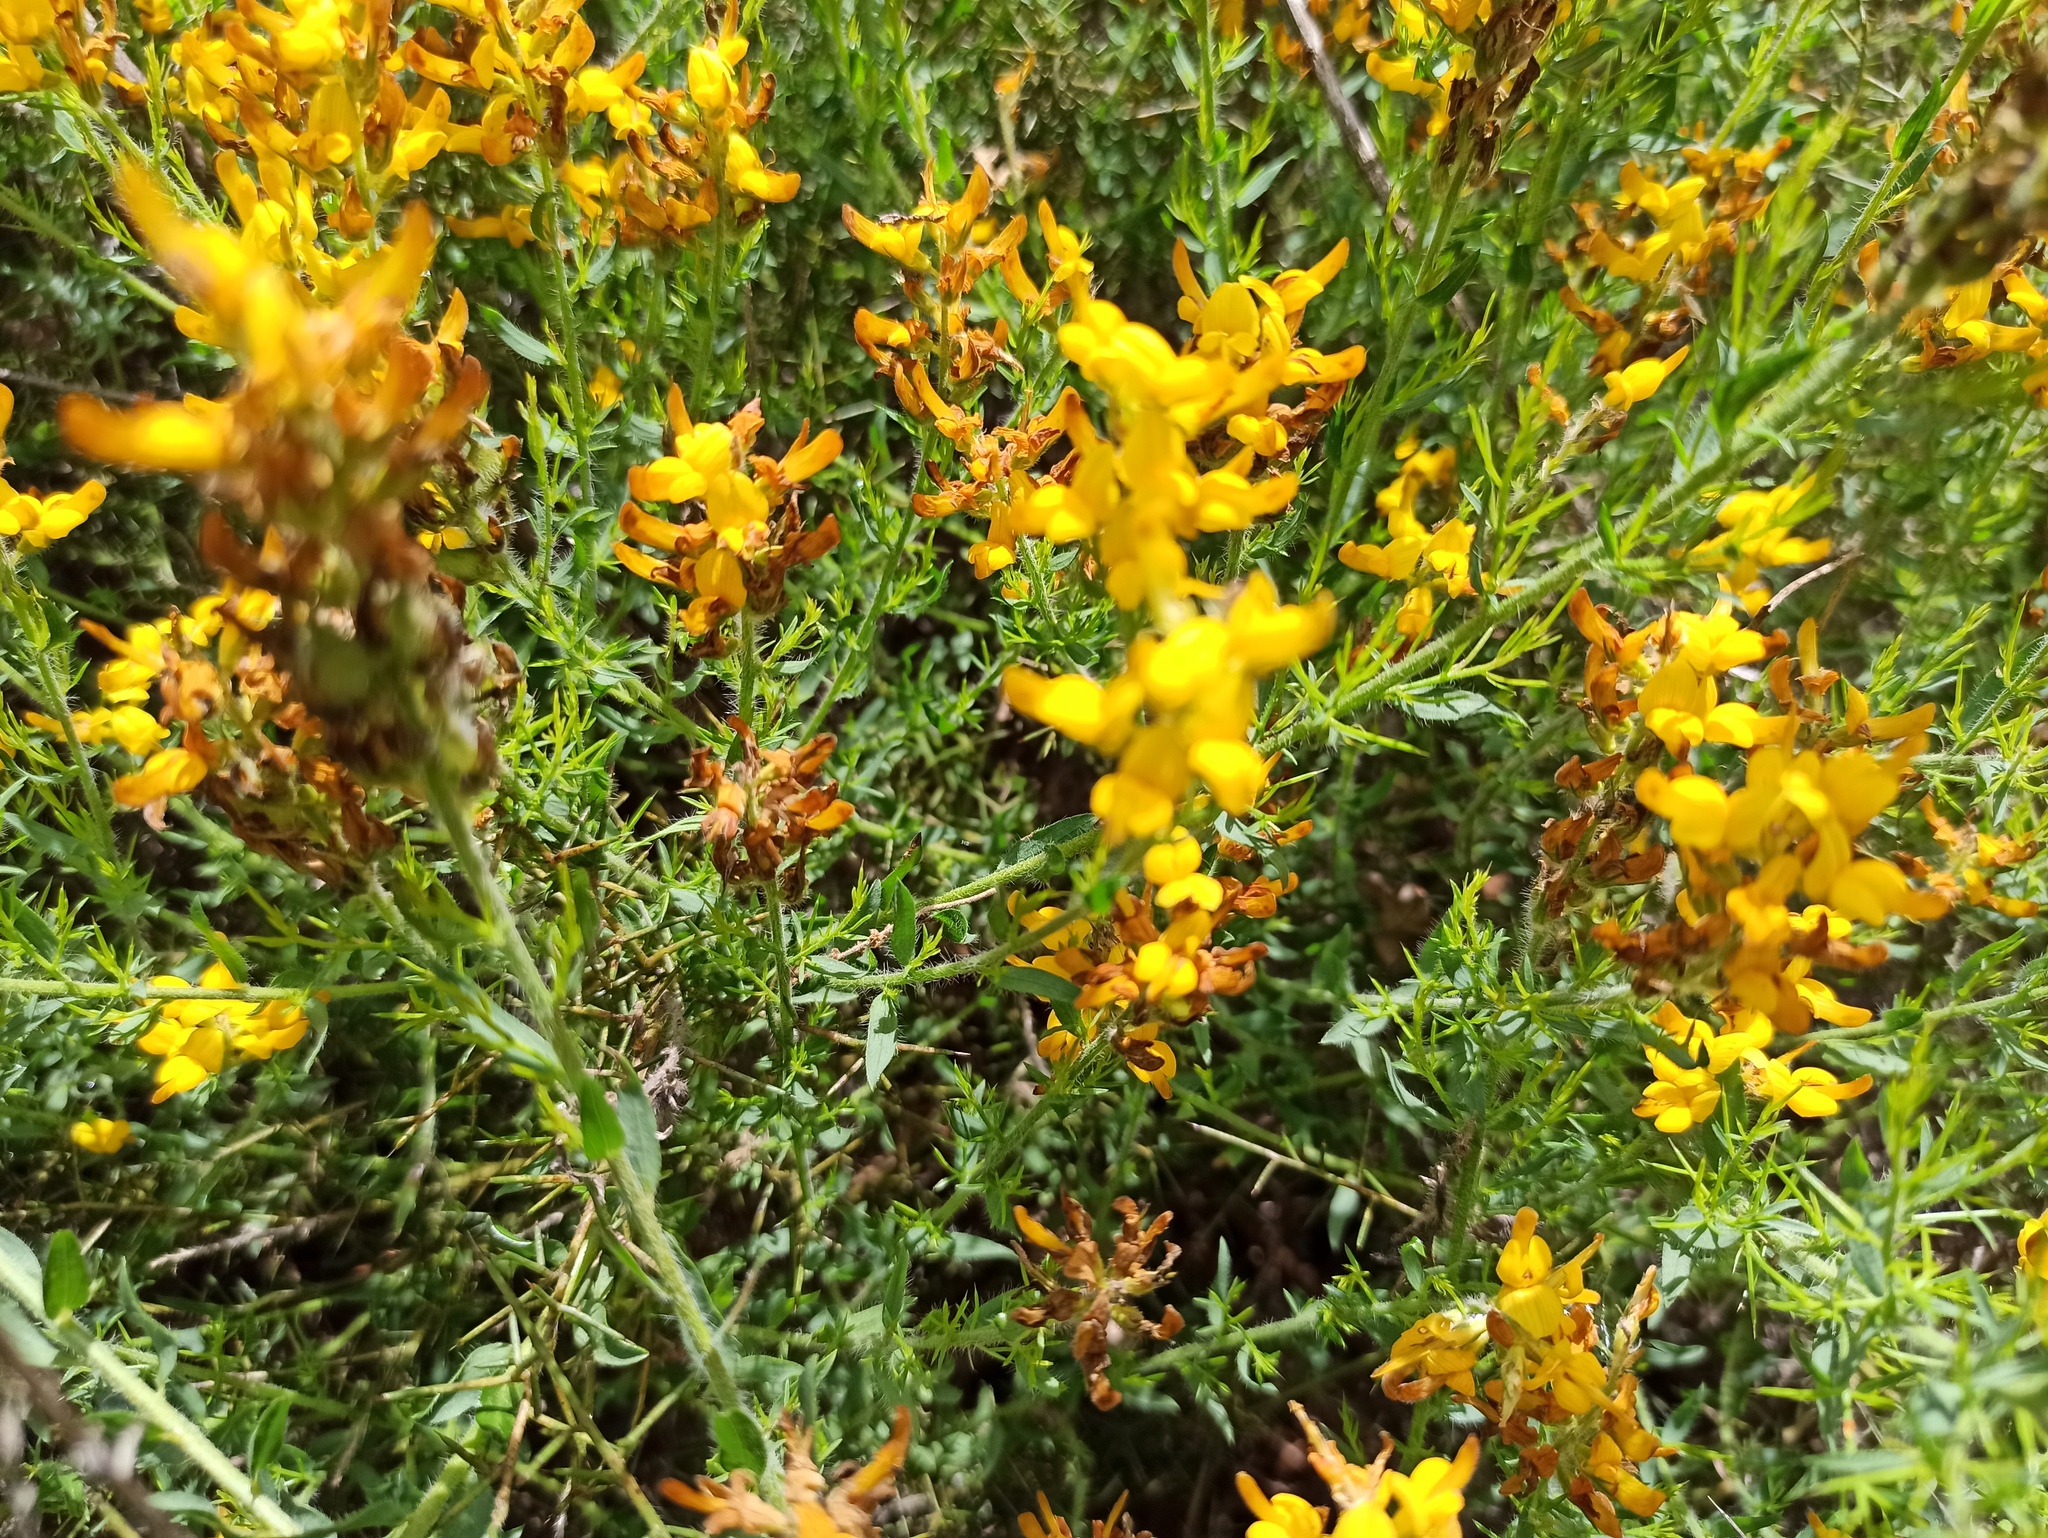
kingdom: Plantae
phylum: Tracheophyta
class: Magnoliopsida
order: Fabales
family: Fabaceae
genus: Genista
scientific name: Genista tridentata
